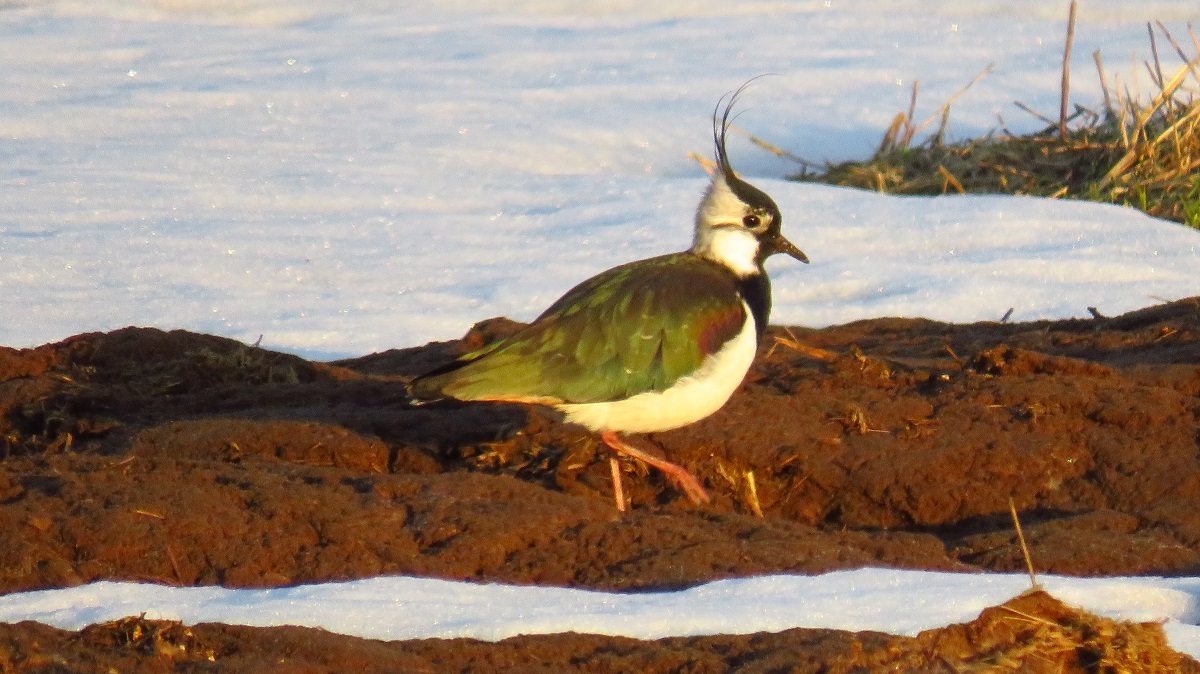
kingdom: Animalia
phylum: Chordata
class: Aves
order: Charadriiformes
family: Charadriidae
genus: Vanellus
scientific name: Vanellus vanellus
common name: Northern lapwing
